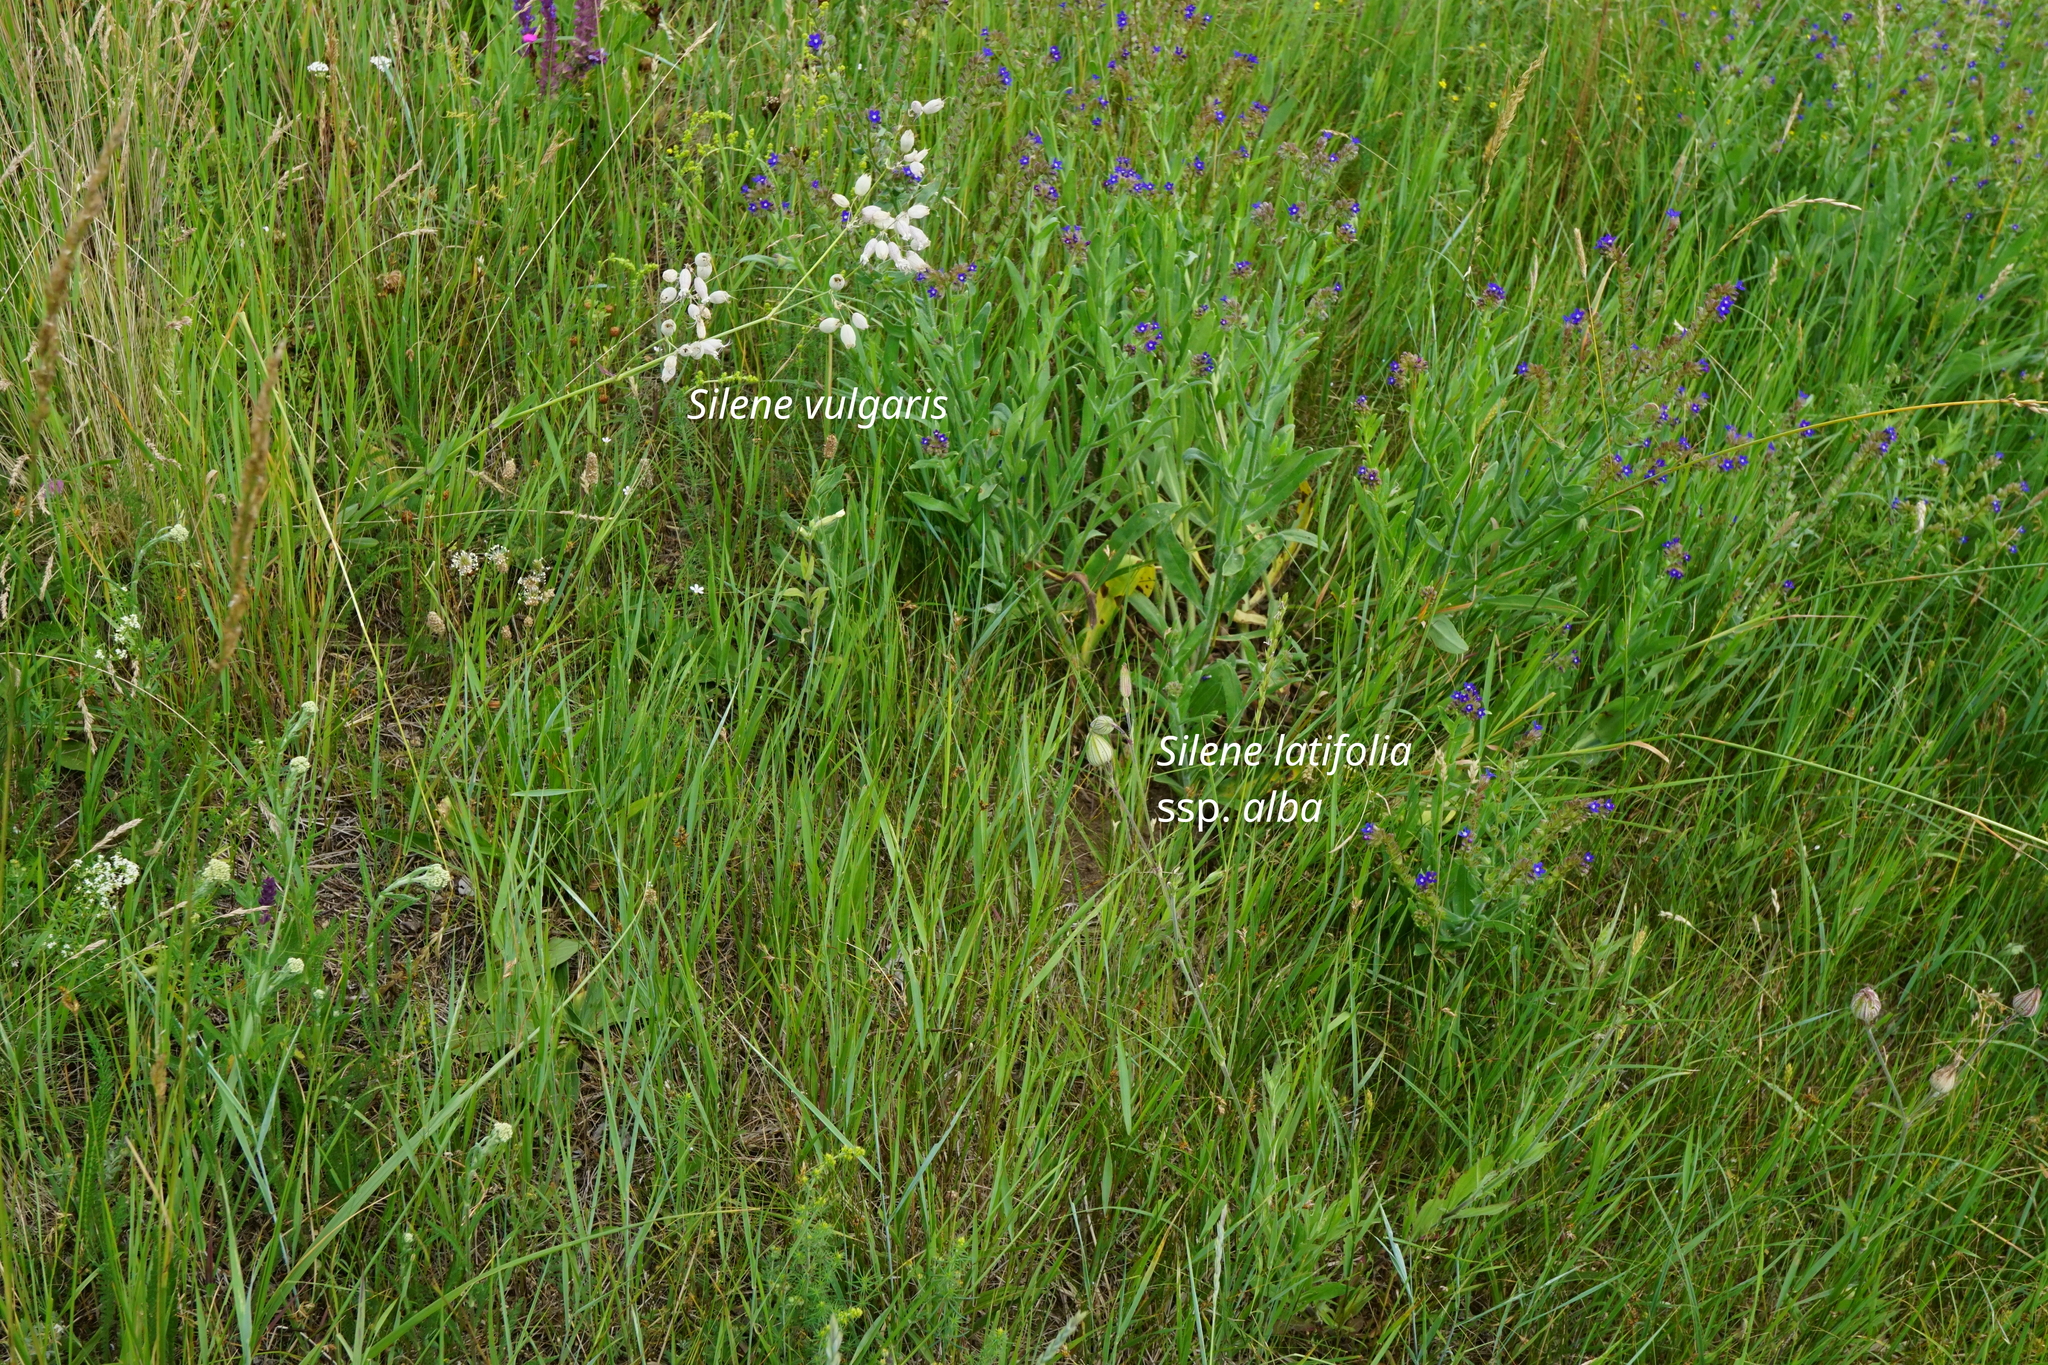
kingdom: Plantae
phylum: Tracheophyta
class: Magnoliopsida
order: Caryophyllales
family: Caryophyllaceae
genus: Silene
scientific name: Silene vulgaris
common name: Bladder campion
